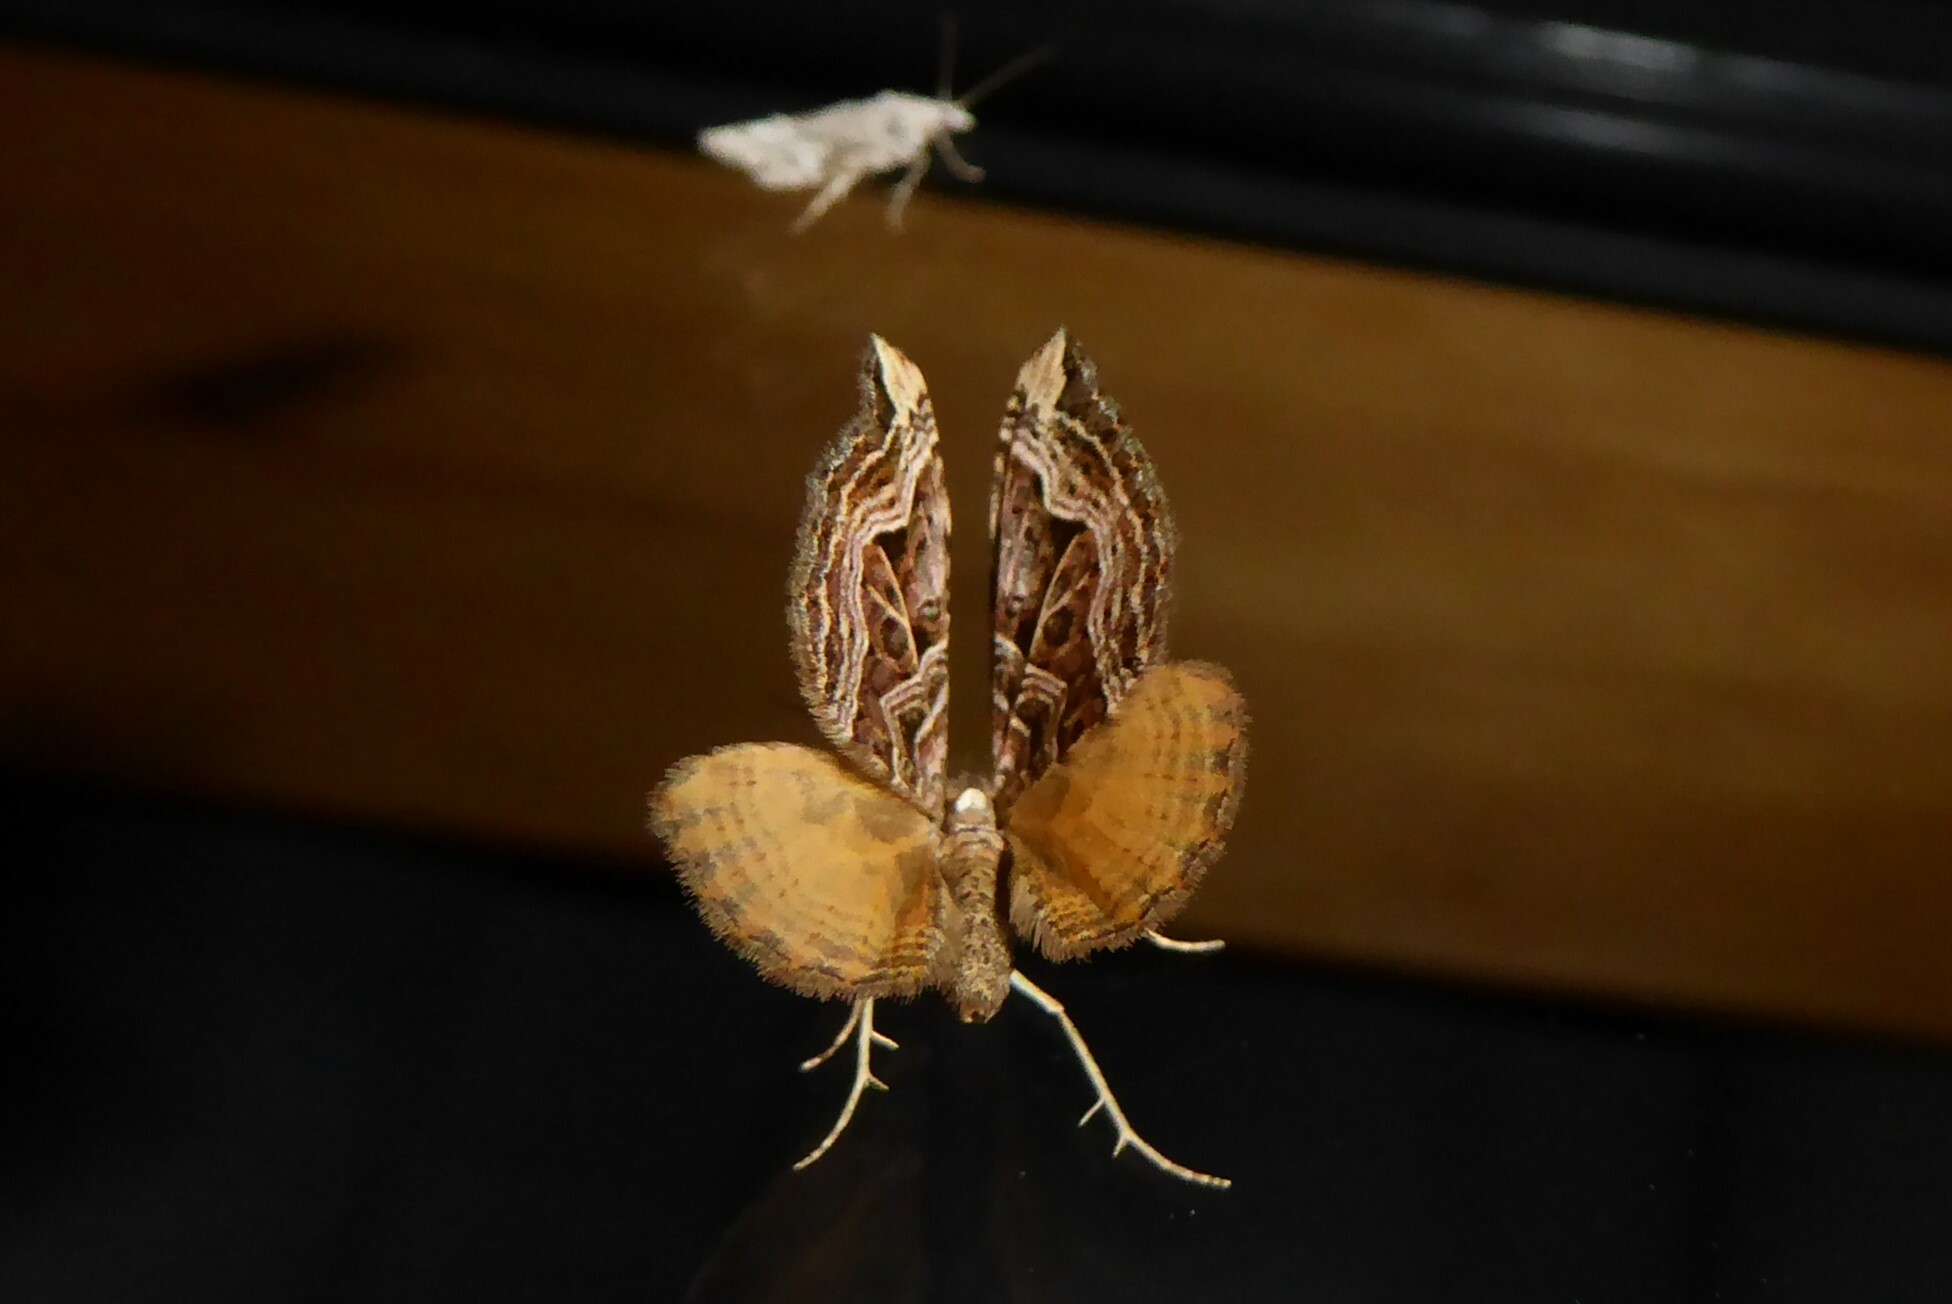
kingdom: Animalia
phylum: Arthropoda
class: Insecta
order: Lepidoptera
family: Geometridae
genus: Xanthorhoe
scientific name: Xanthorhoe semifissata
